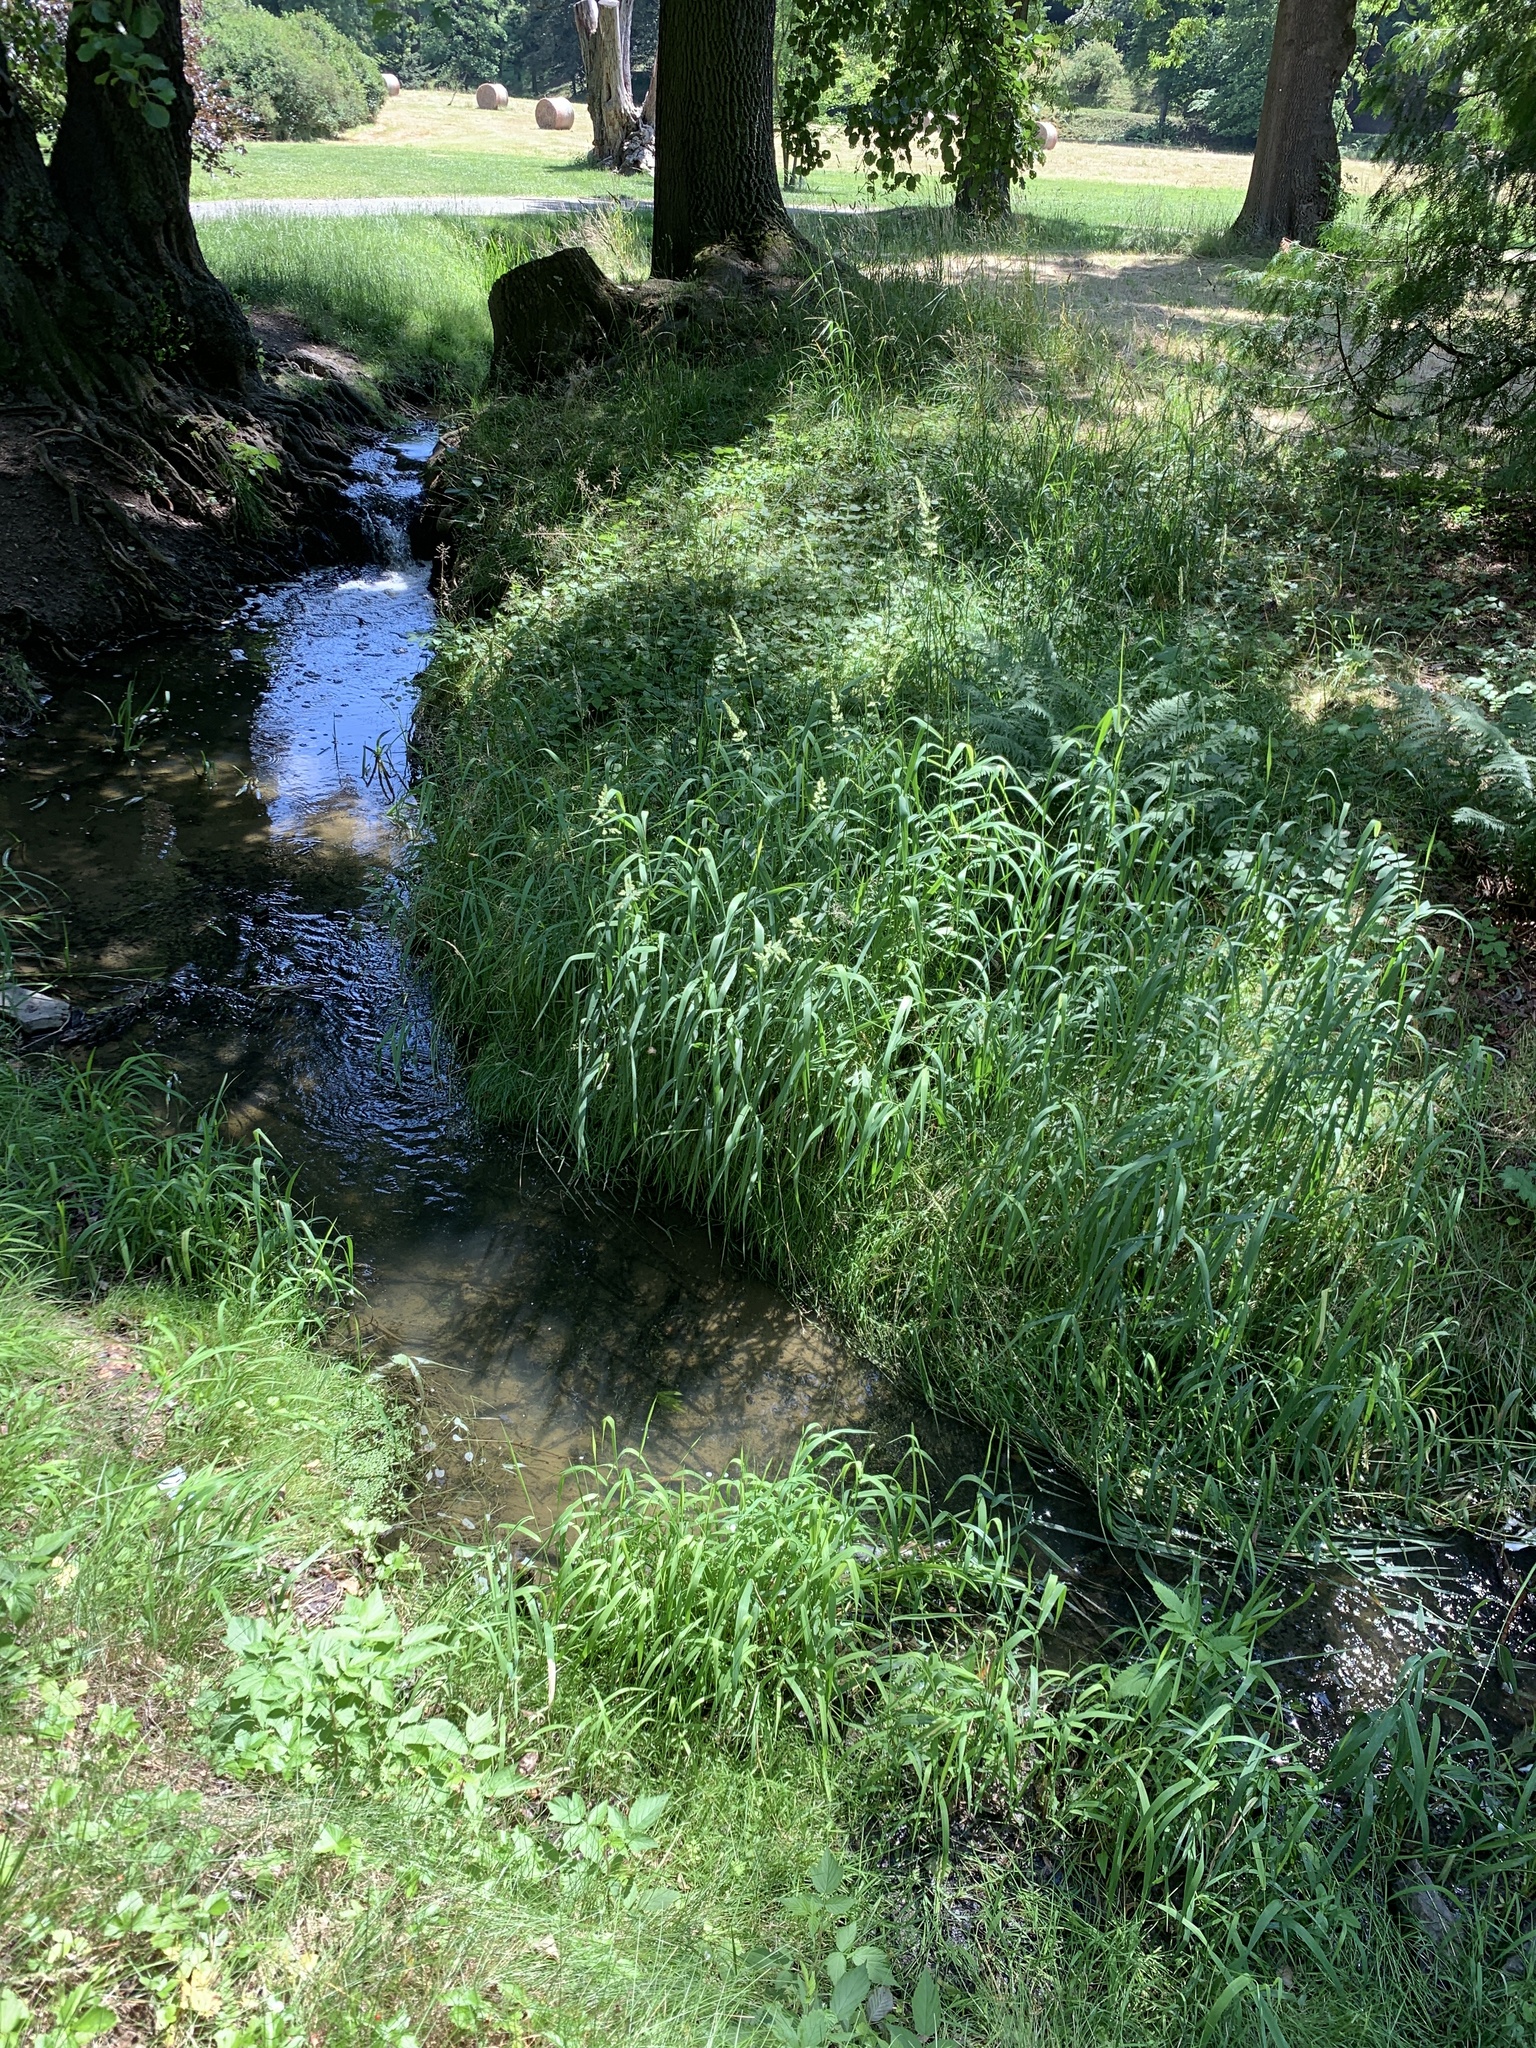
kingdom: Plantae
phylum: Tracheophyta
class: Liliopsida
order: Poales
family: Poaceae
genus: Phalaris
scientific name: Phalaris arundinacea
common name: Reed canary-grass
